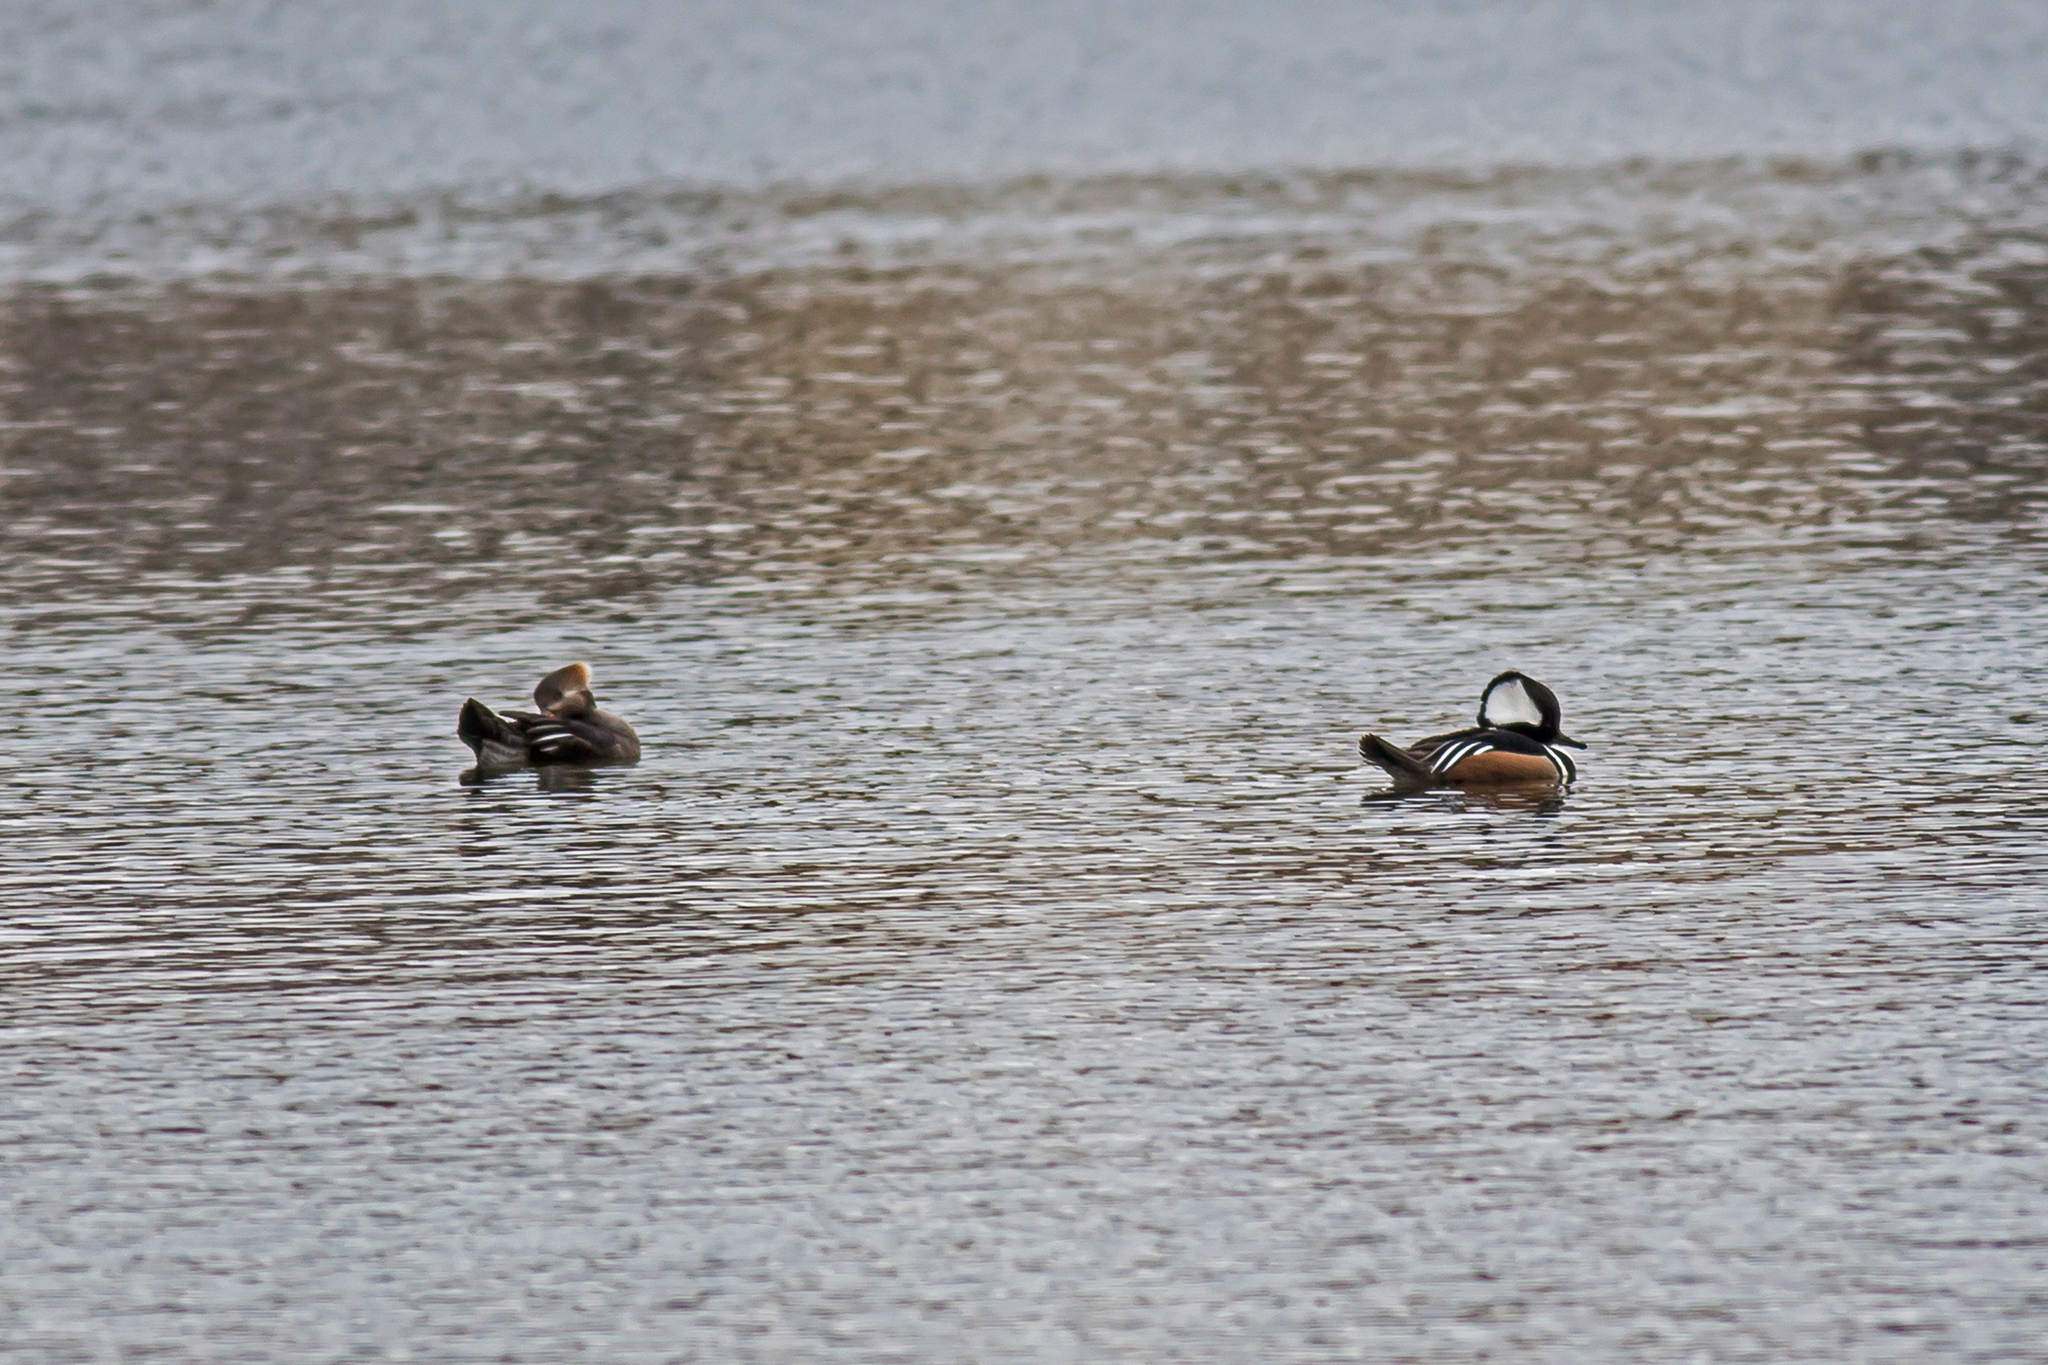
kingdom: Animalia
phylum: Chordata
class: Aves
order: Anseriformes
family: Anatidae
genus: Lophodytes
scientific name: Lophodytes cucullatus
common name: Hooded merganser
